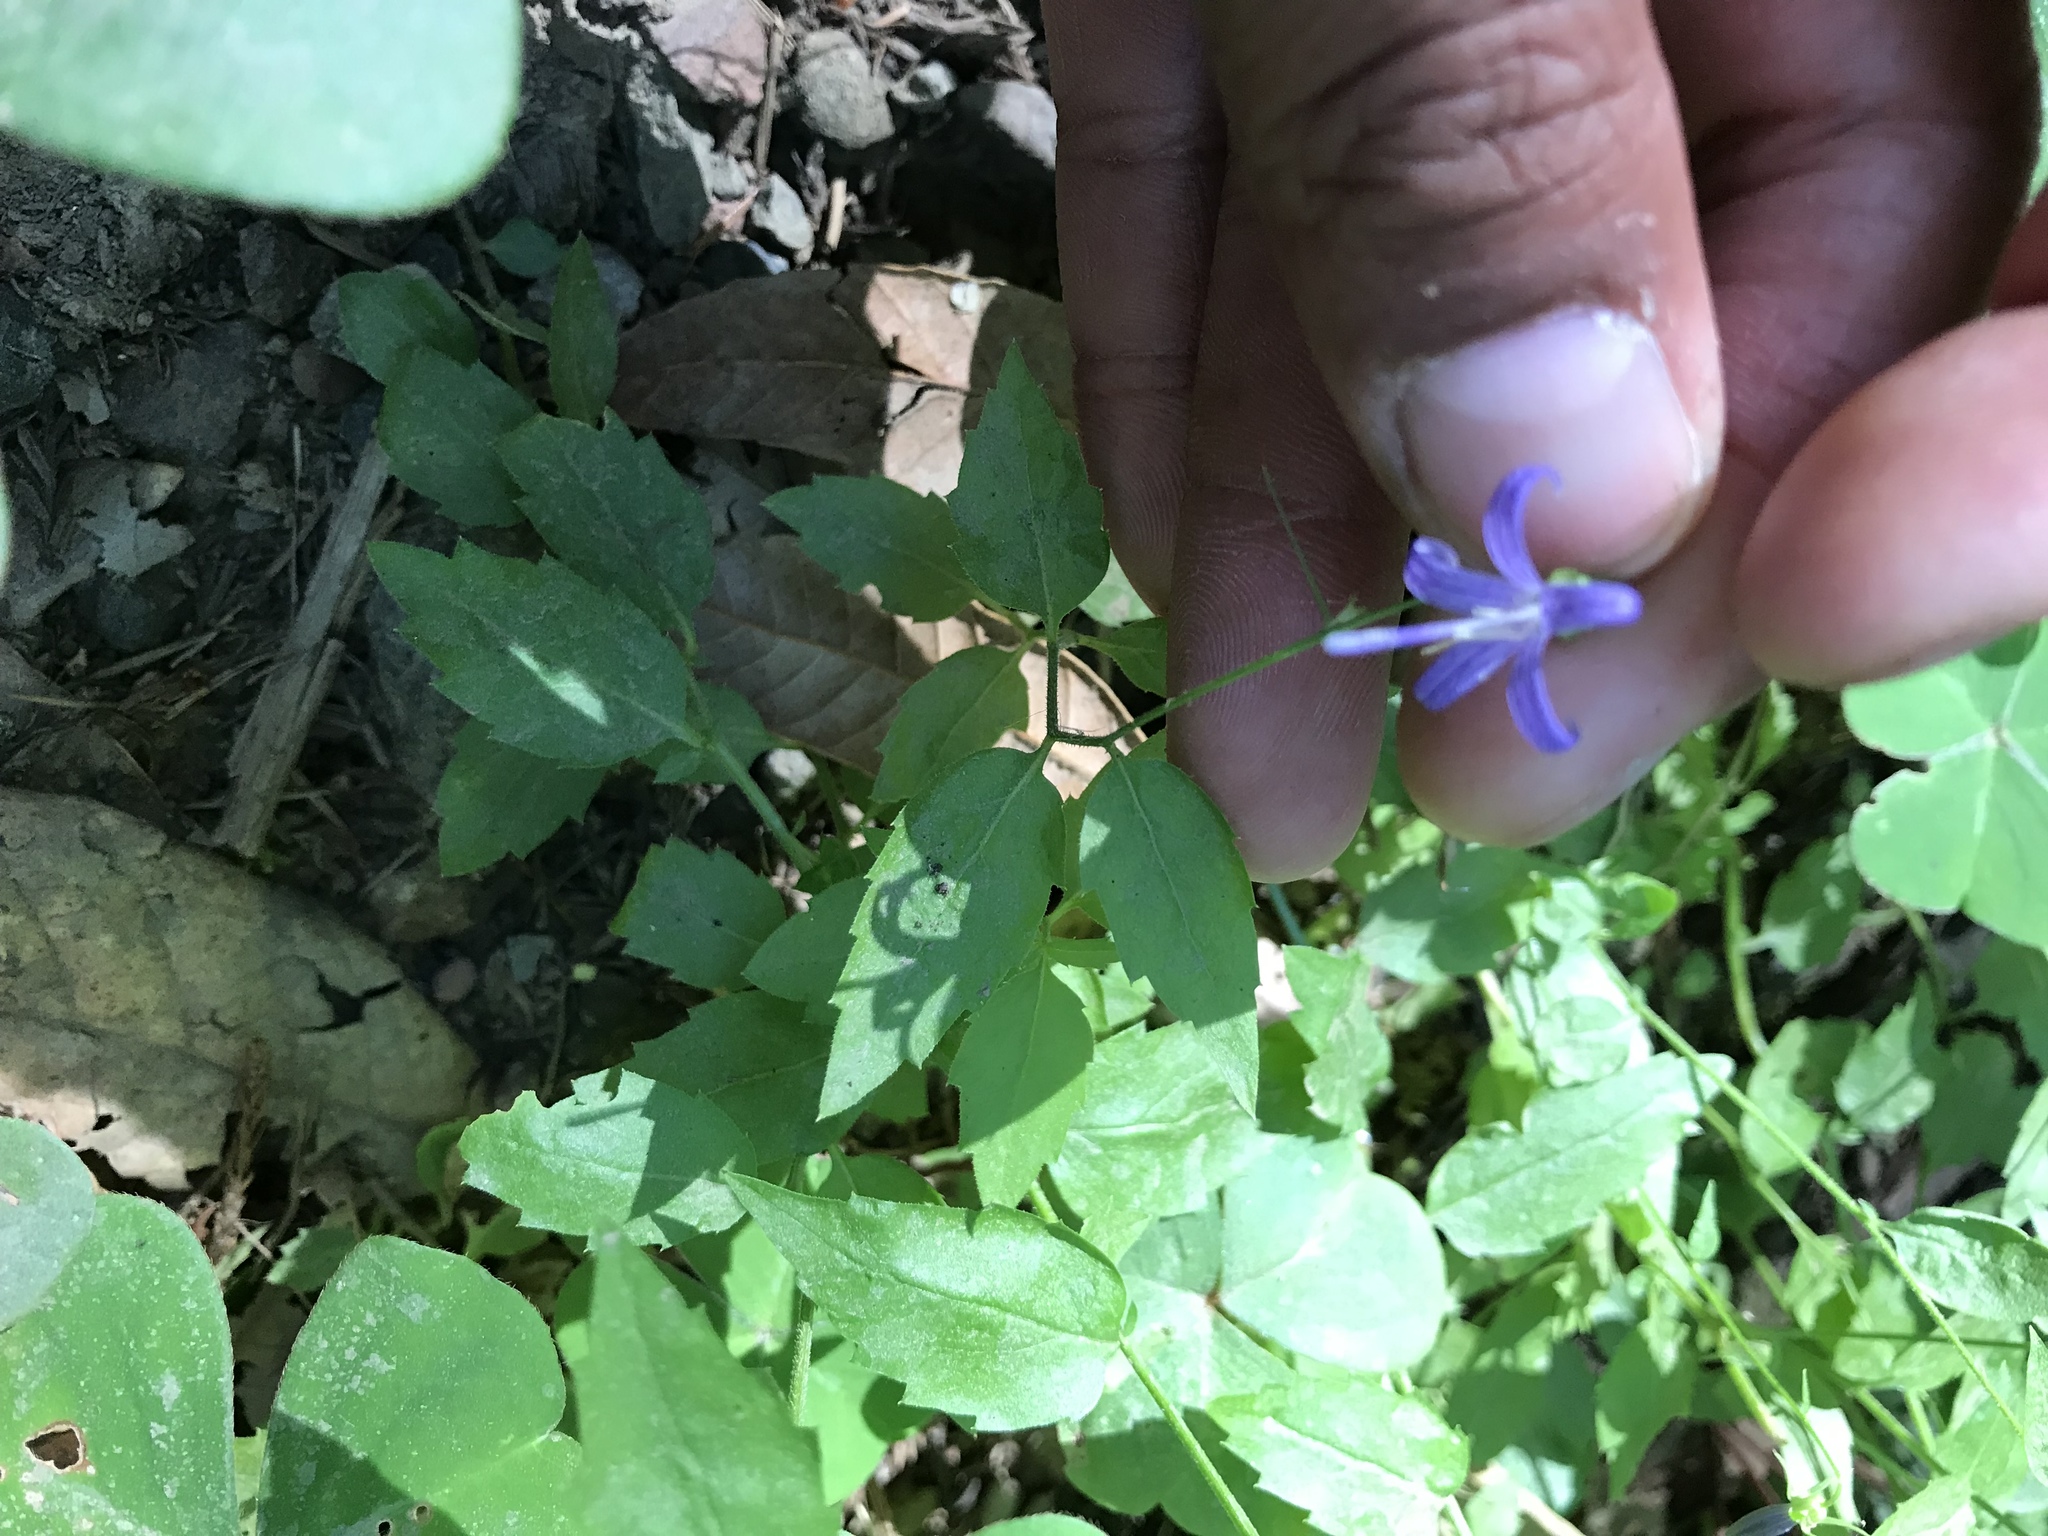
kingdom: Plantae
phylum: Tracheophyta
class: Magnoliopsida
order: Asterales
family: Campanulaceae
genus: Smithiastrum
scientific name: Smithiastrum prenanthoides
